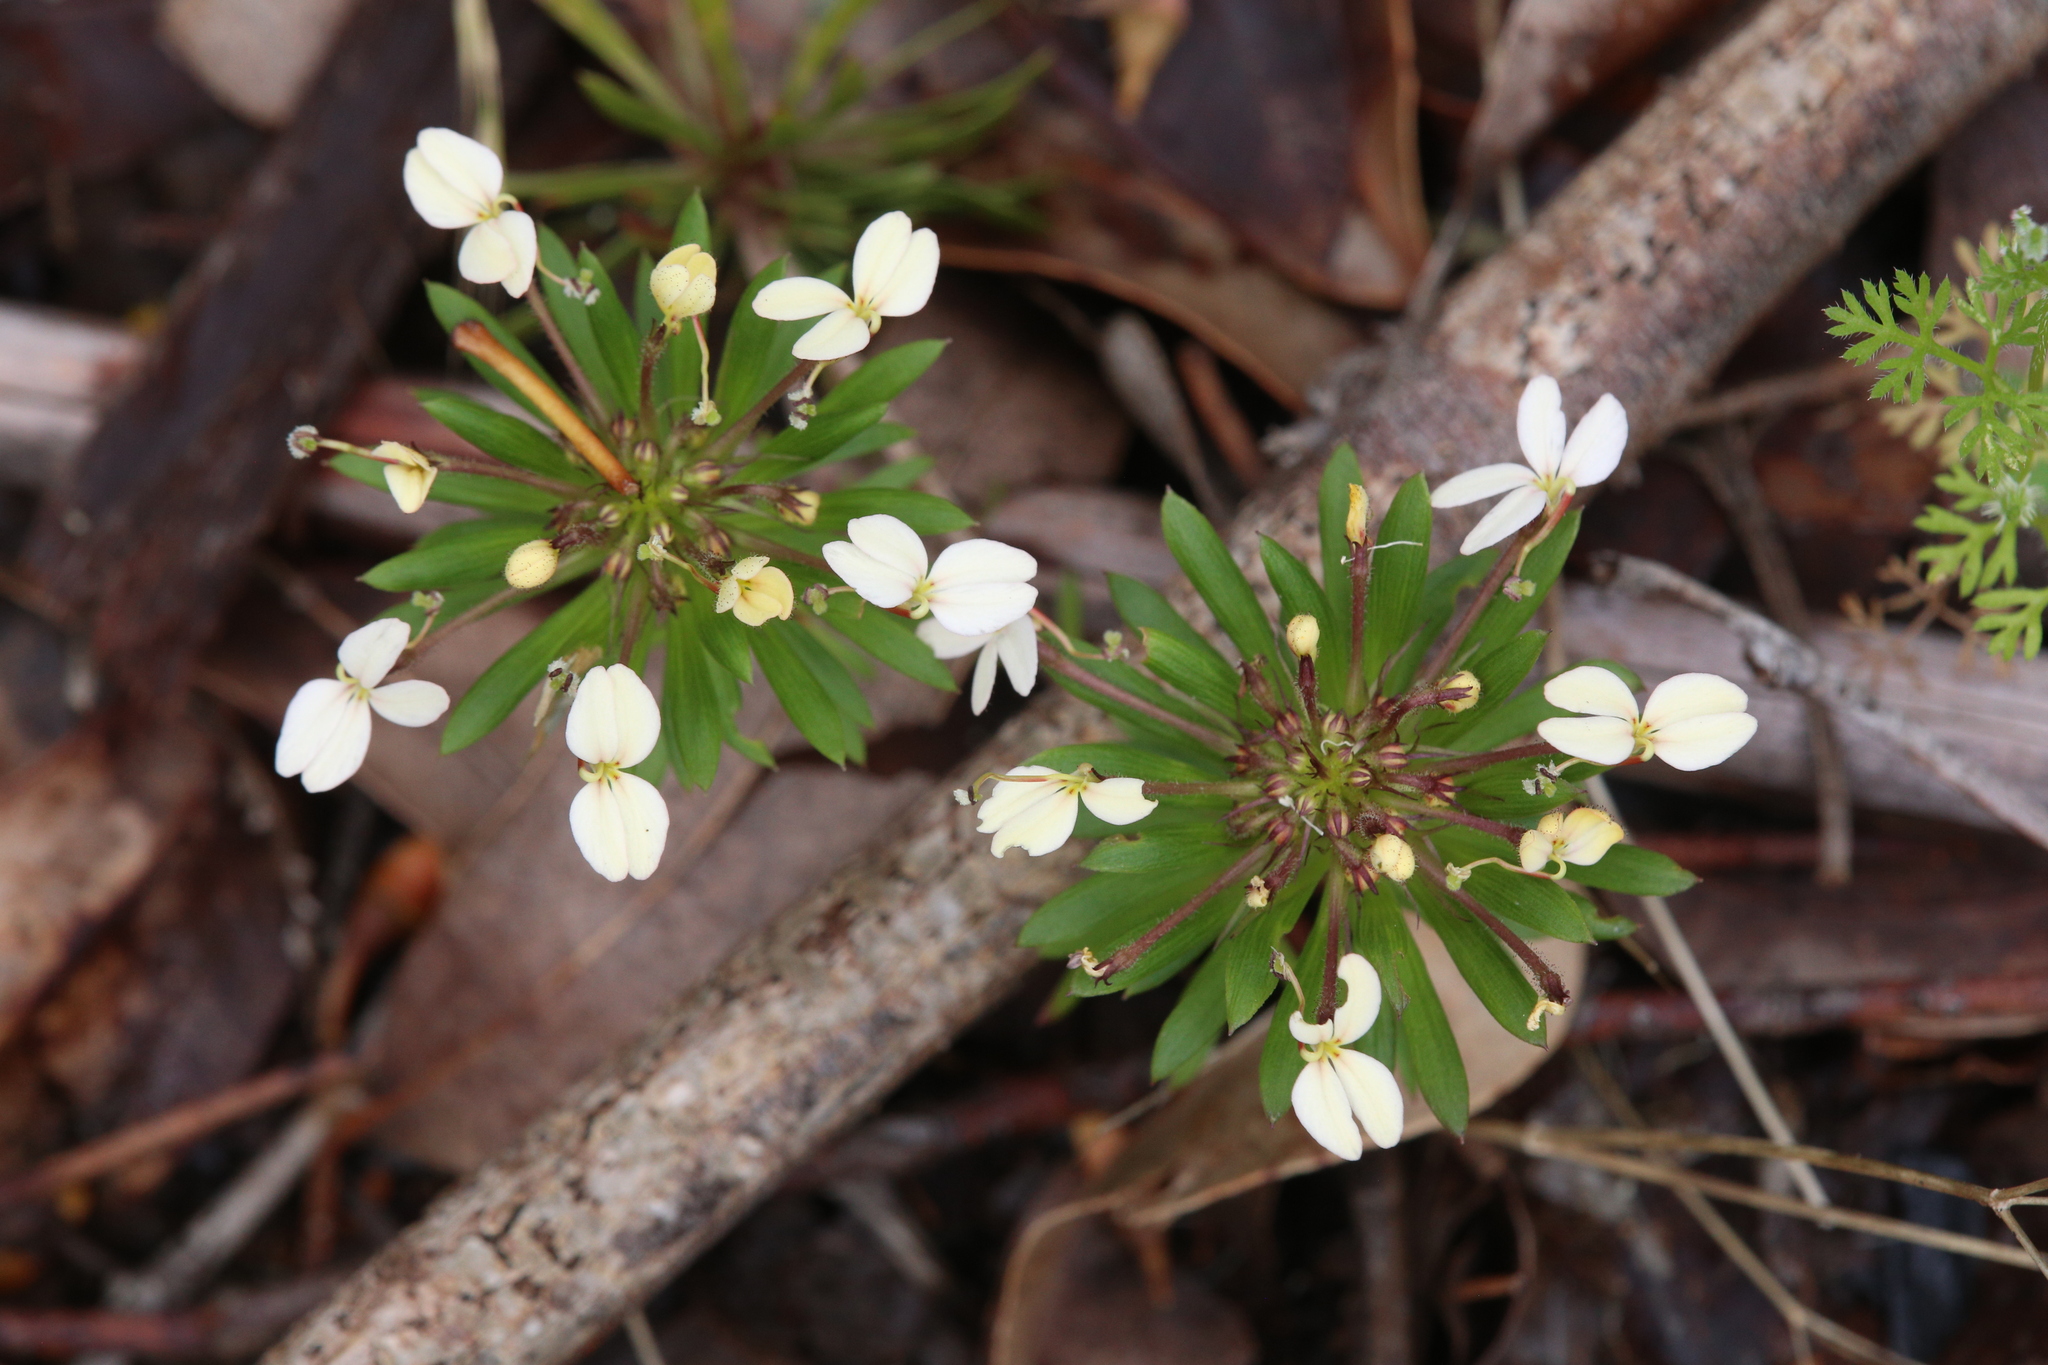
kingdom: Plantae
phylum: Tracheophyta
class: Magnoliopsida
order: Asterales
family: Stylidiaceae
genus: Stylidium
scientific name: Stylidium rhynchocarpum
